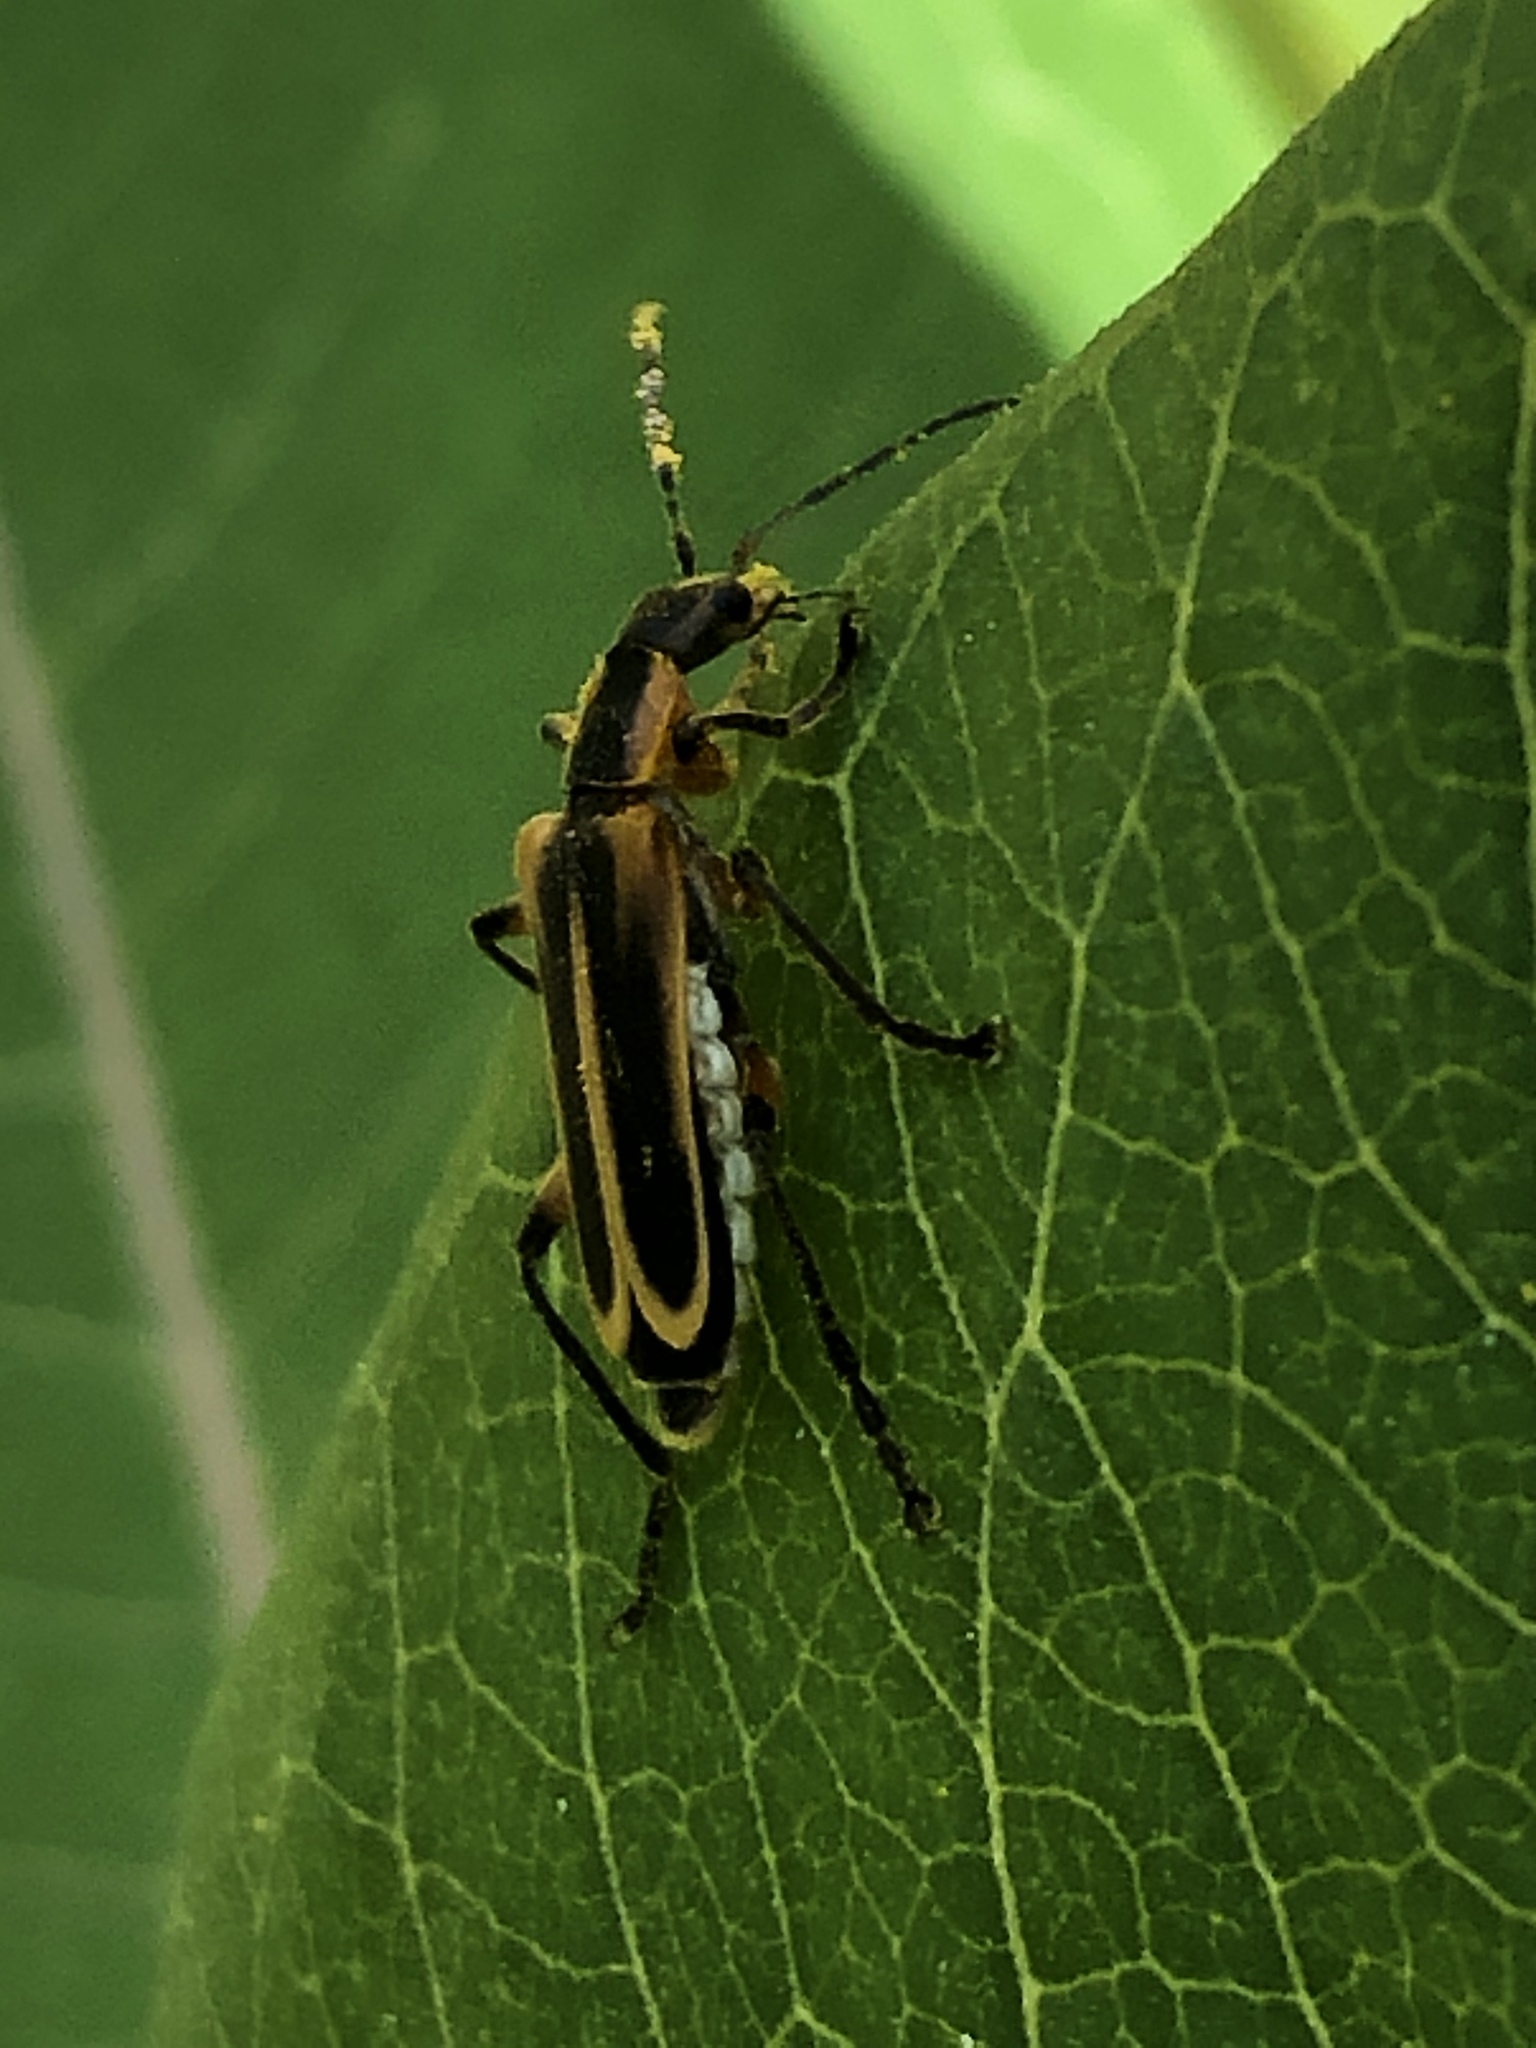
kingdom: Animalia
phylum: Arthropoda
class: Insecta
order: Coleoptera
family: Cantharidae
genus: Chauliognathus
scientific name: Chauliognathus marginatus
